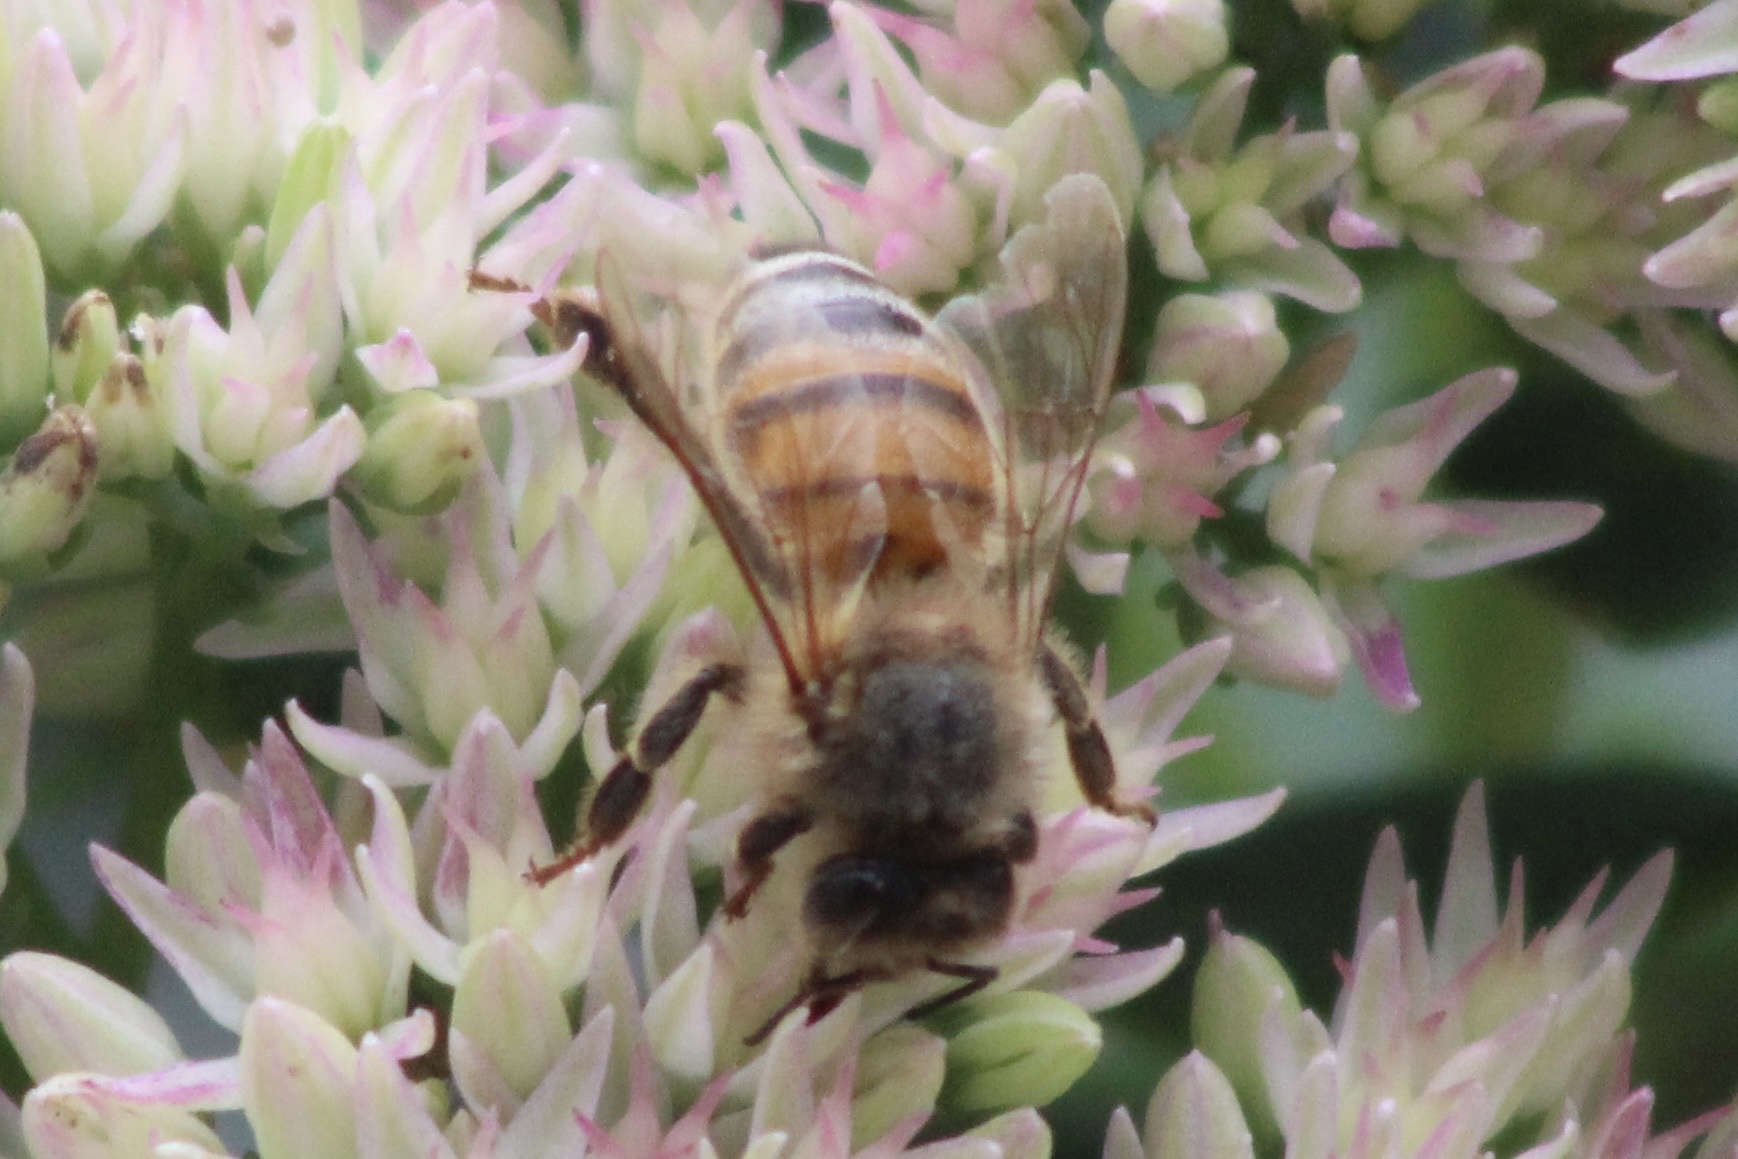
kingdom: Animalia
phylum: Arthropoda
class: Insecta
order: Hymenoptera
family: Apidae
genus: Apis
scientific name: Apis mellifera
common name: Honey bee
